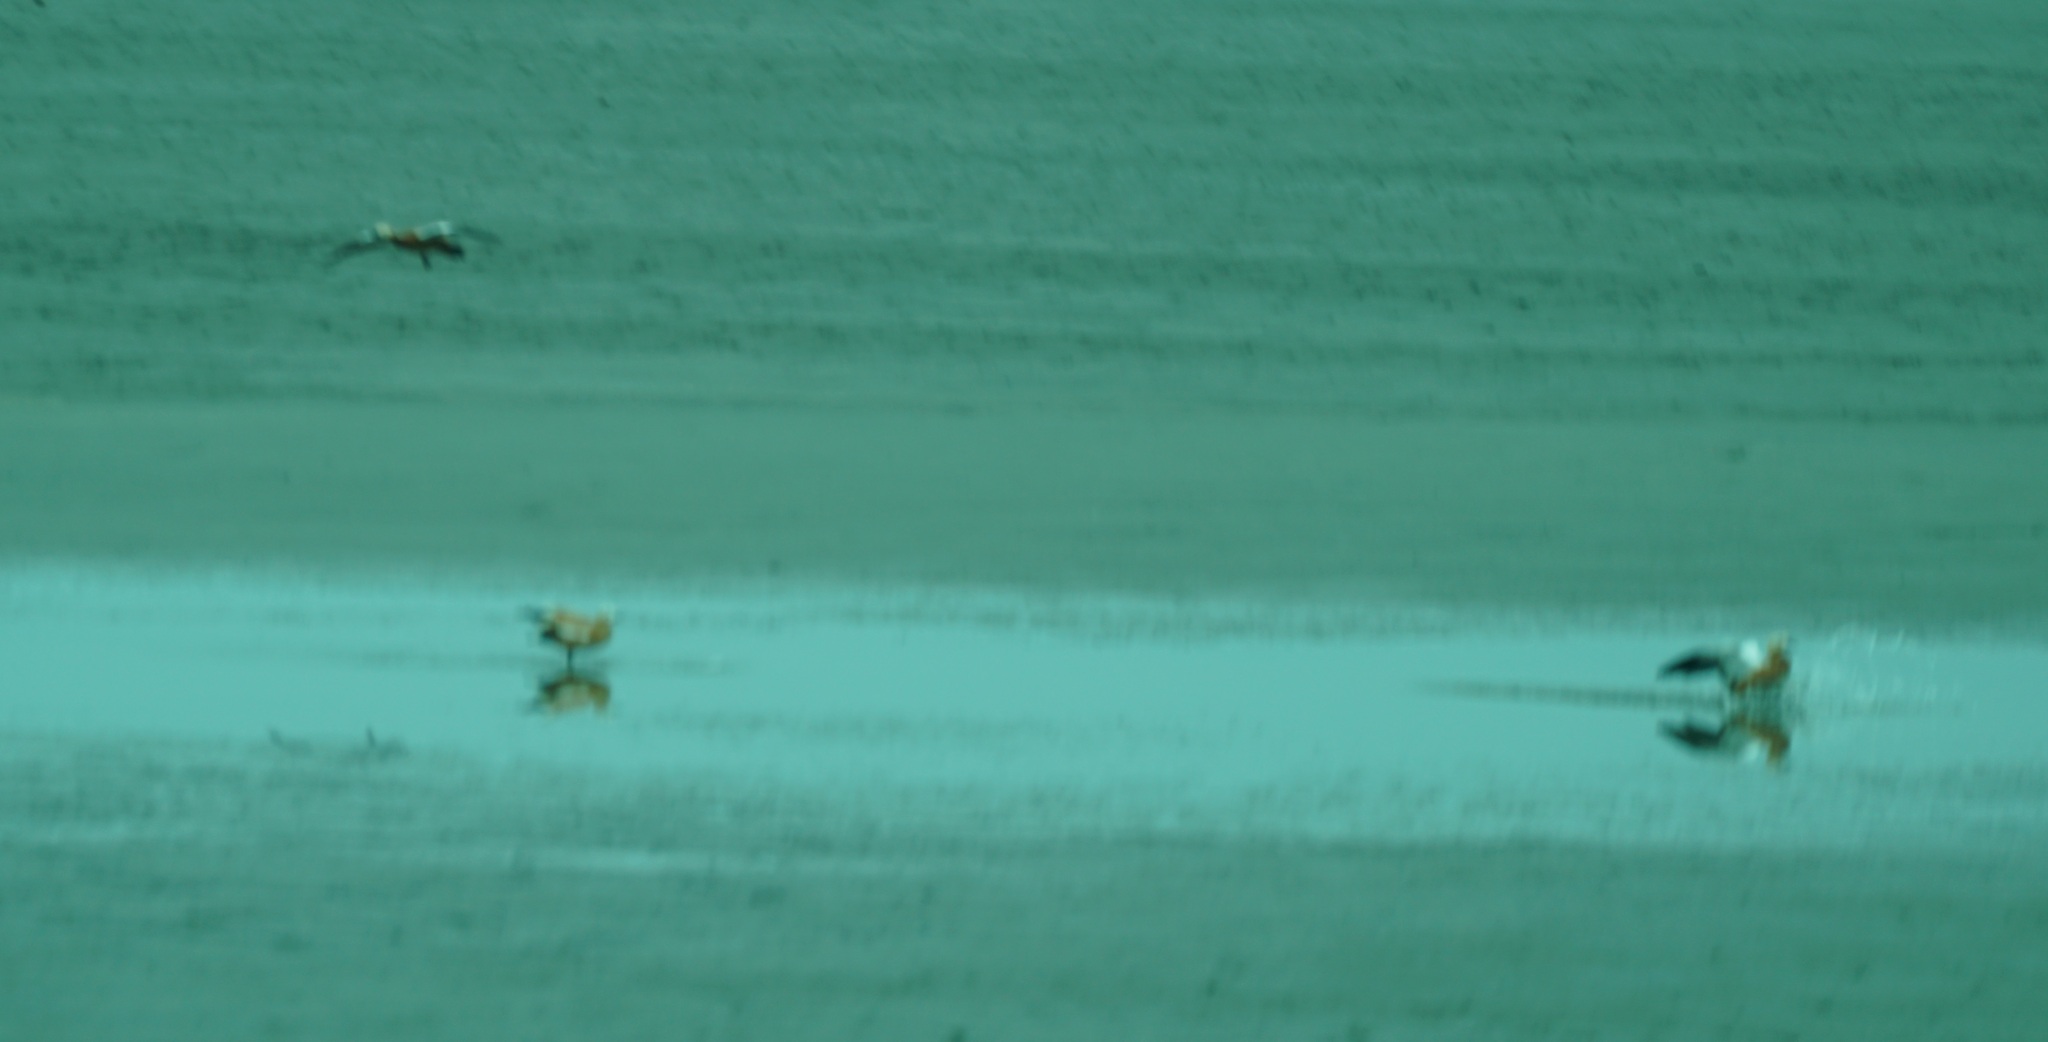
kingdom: Animalia
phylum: Chordata
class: Aves
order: Anseriformes
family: Anatidae
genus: Tadorna
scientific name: Tadorna ferruginea
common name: Ruddy shelduck
